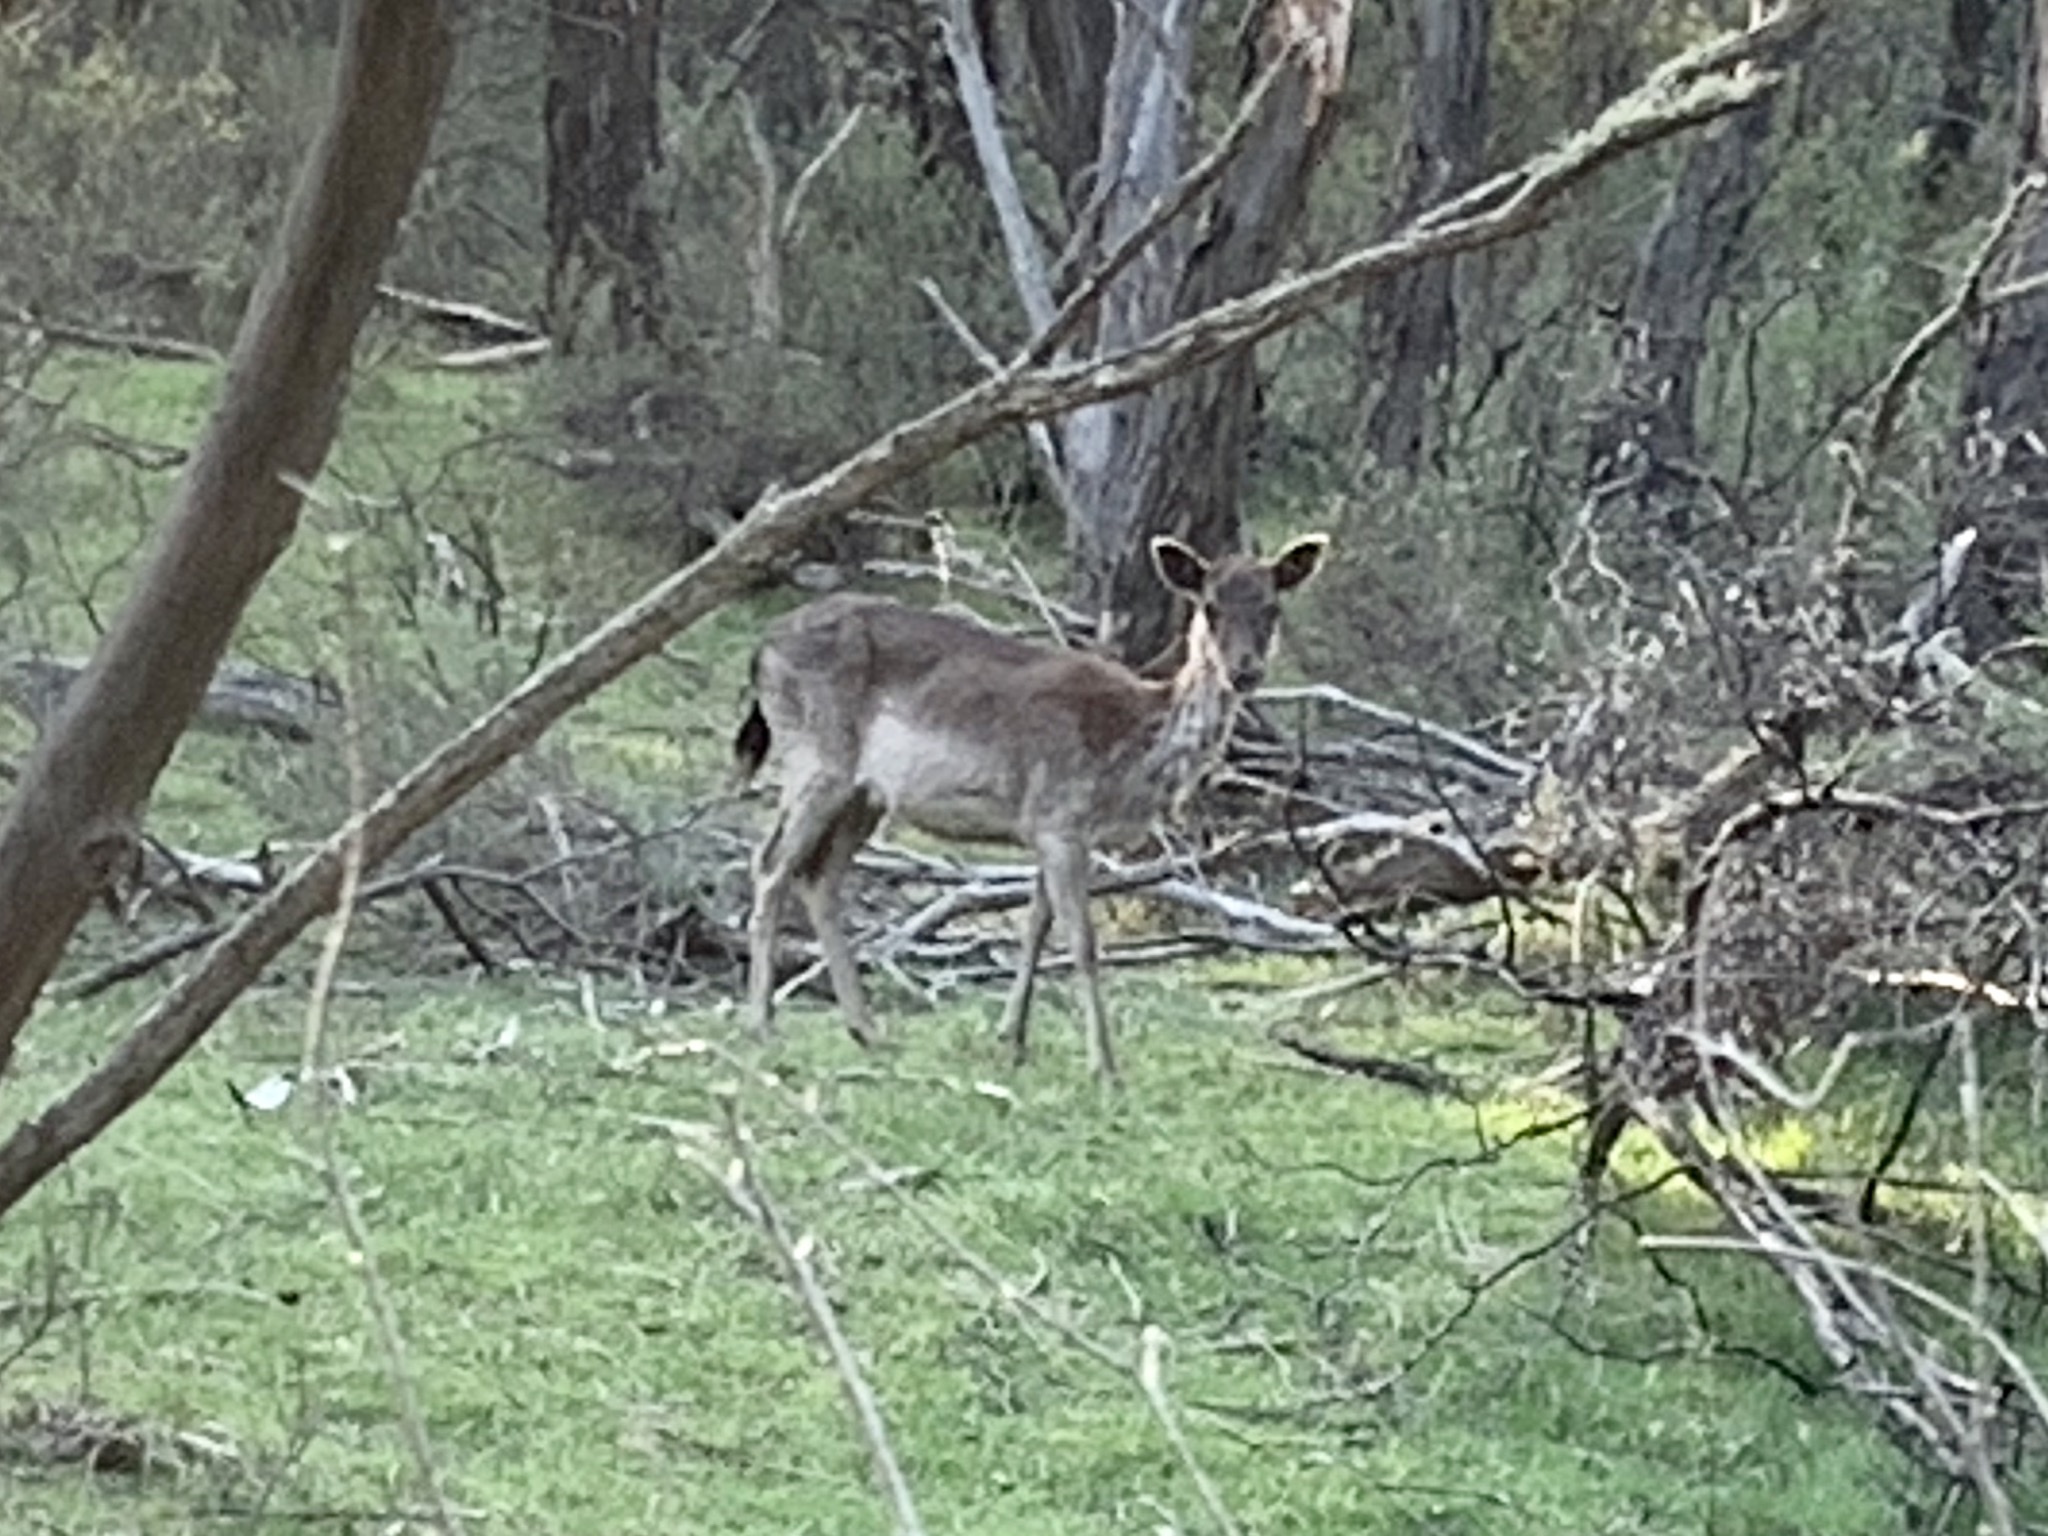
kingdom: Animalia
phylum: Chordata
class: Mammalia
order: Artiodactyla
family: Cervidae
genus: Dama
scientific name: Dama dama
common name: Fallow deer
